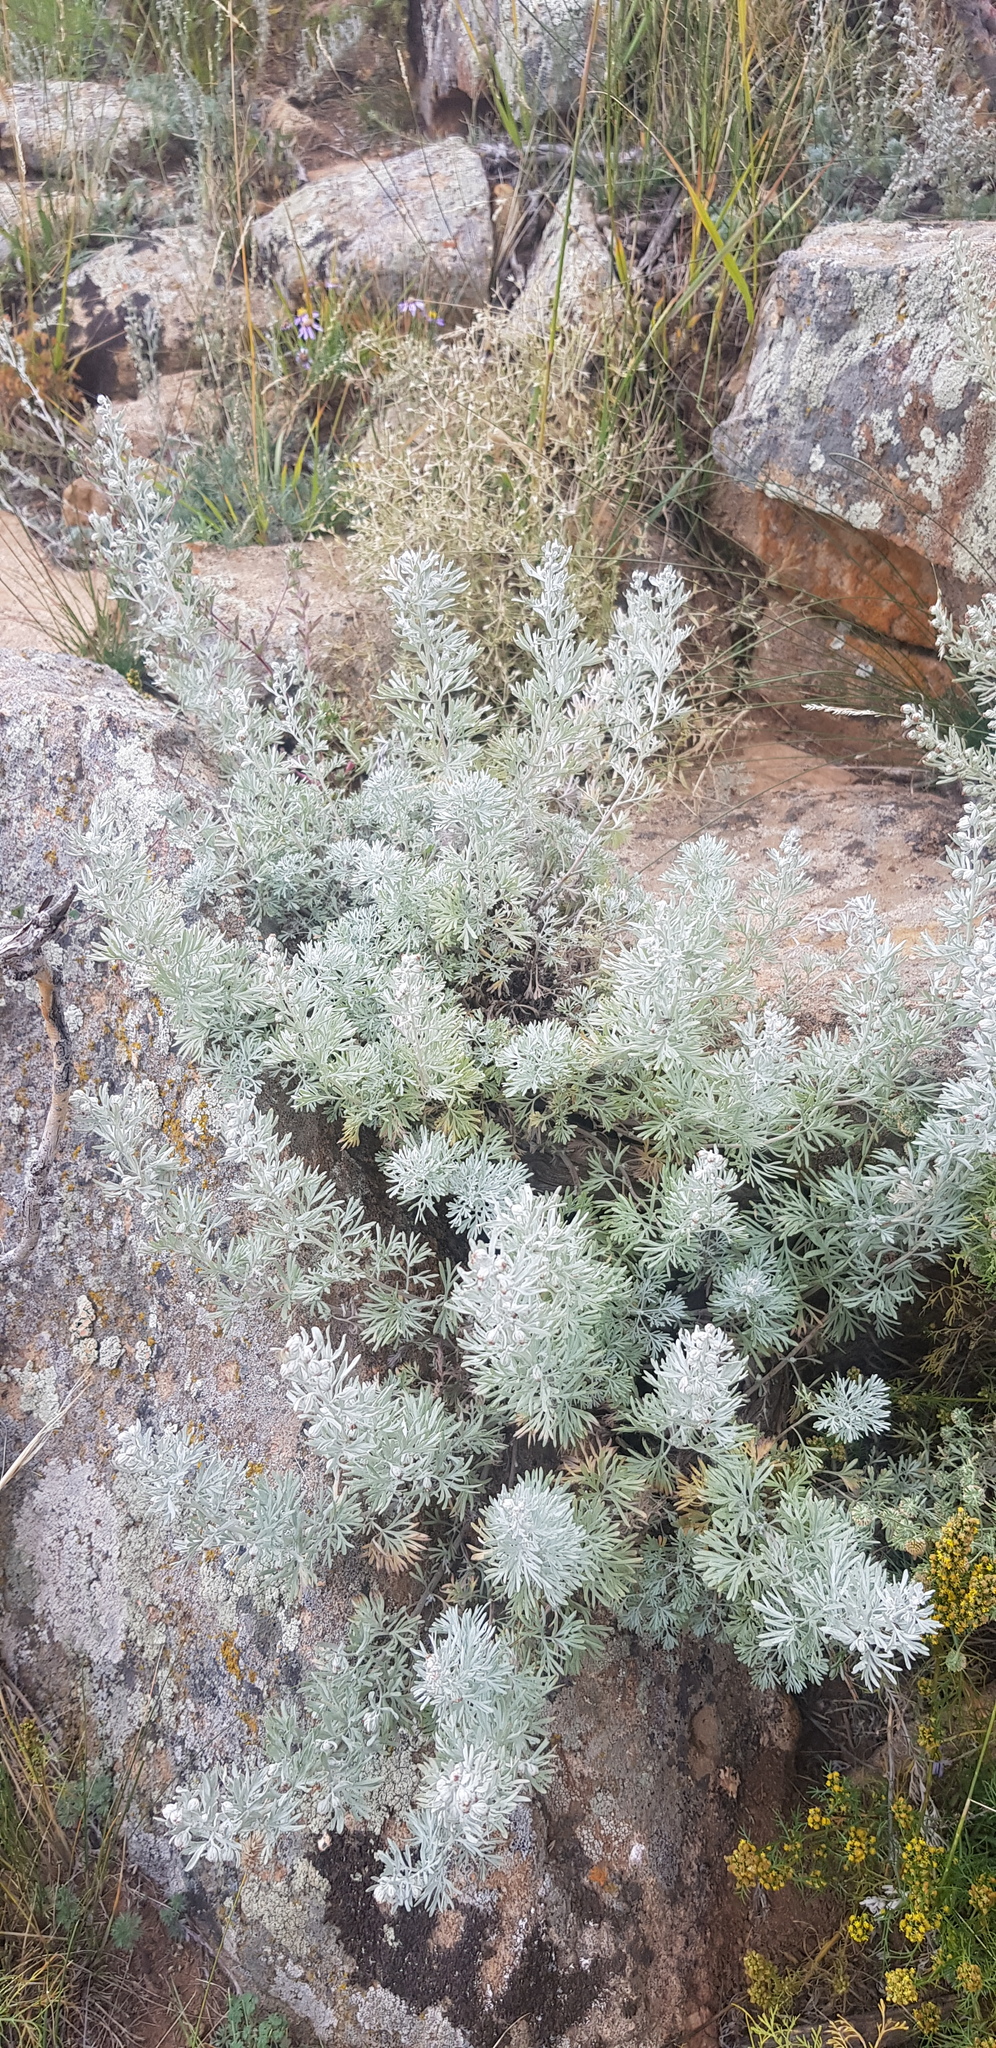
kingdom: Plantae
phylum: Tracheophyta
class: Magnoliopsida
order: Asterales
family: Asteraceae
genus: Artemisia
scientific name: Artemisia rutifolia
